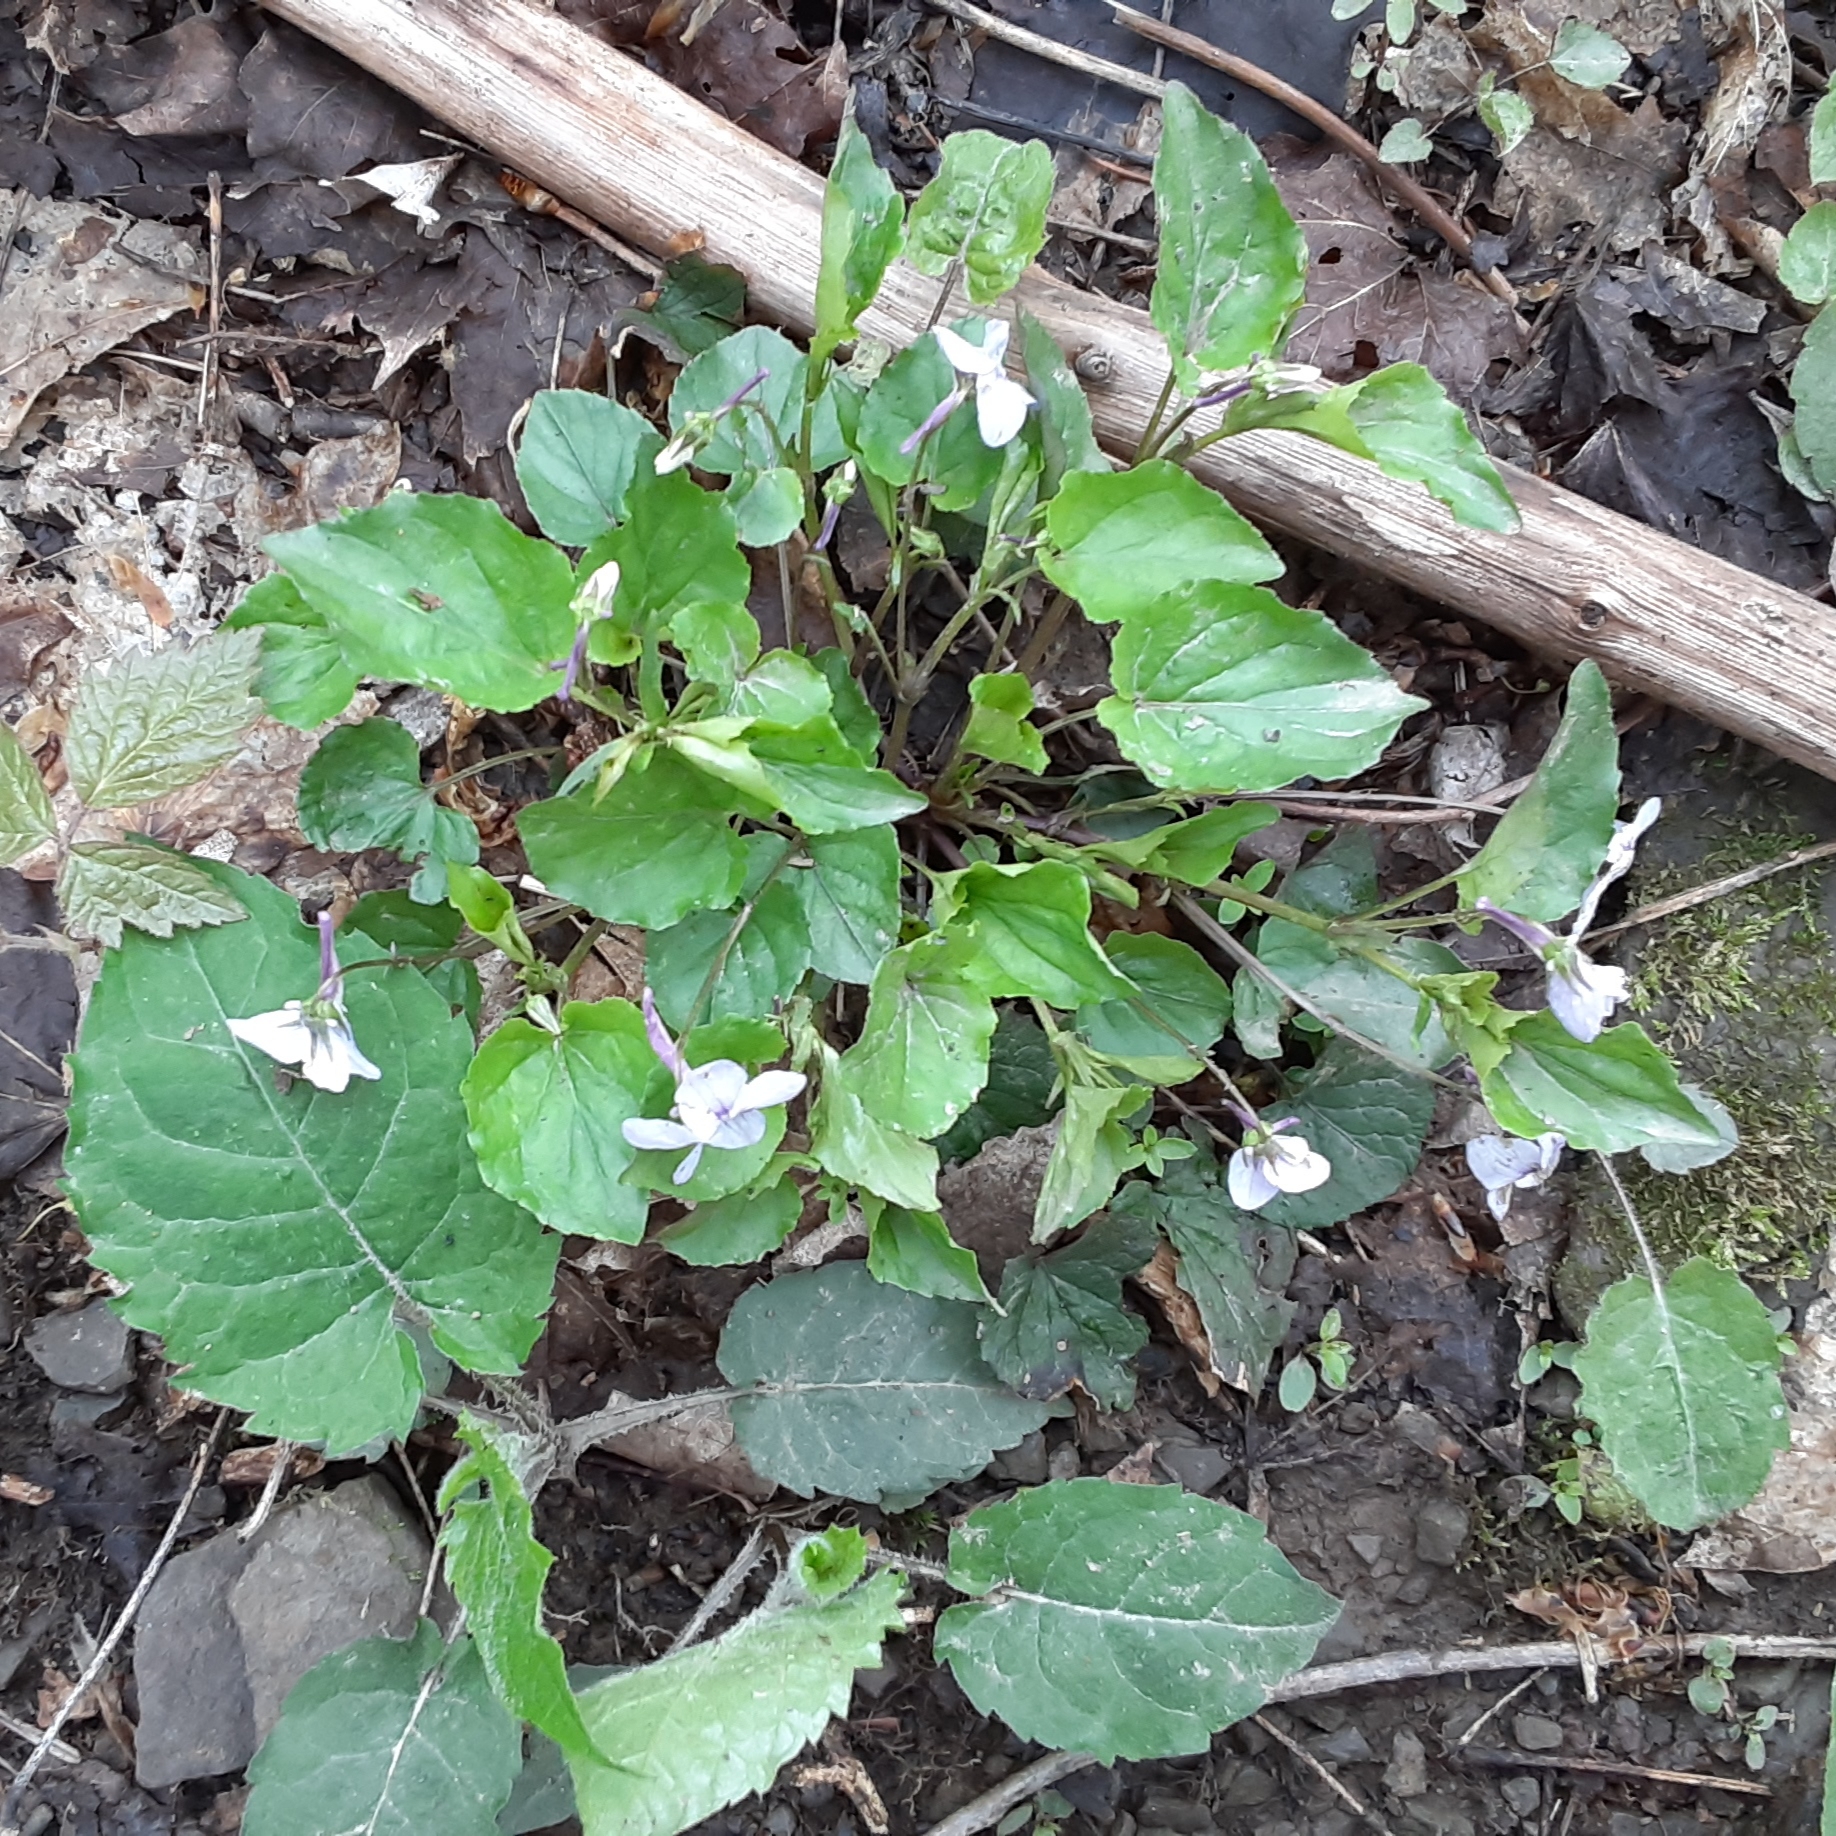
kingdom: Plantae
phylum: Tracheophyta
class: Magnoliopsida
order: Malpighiales
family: Violaceae
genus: Viola
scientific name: Viola rostrata
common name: Long-spur violet
